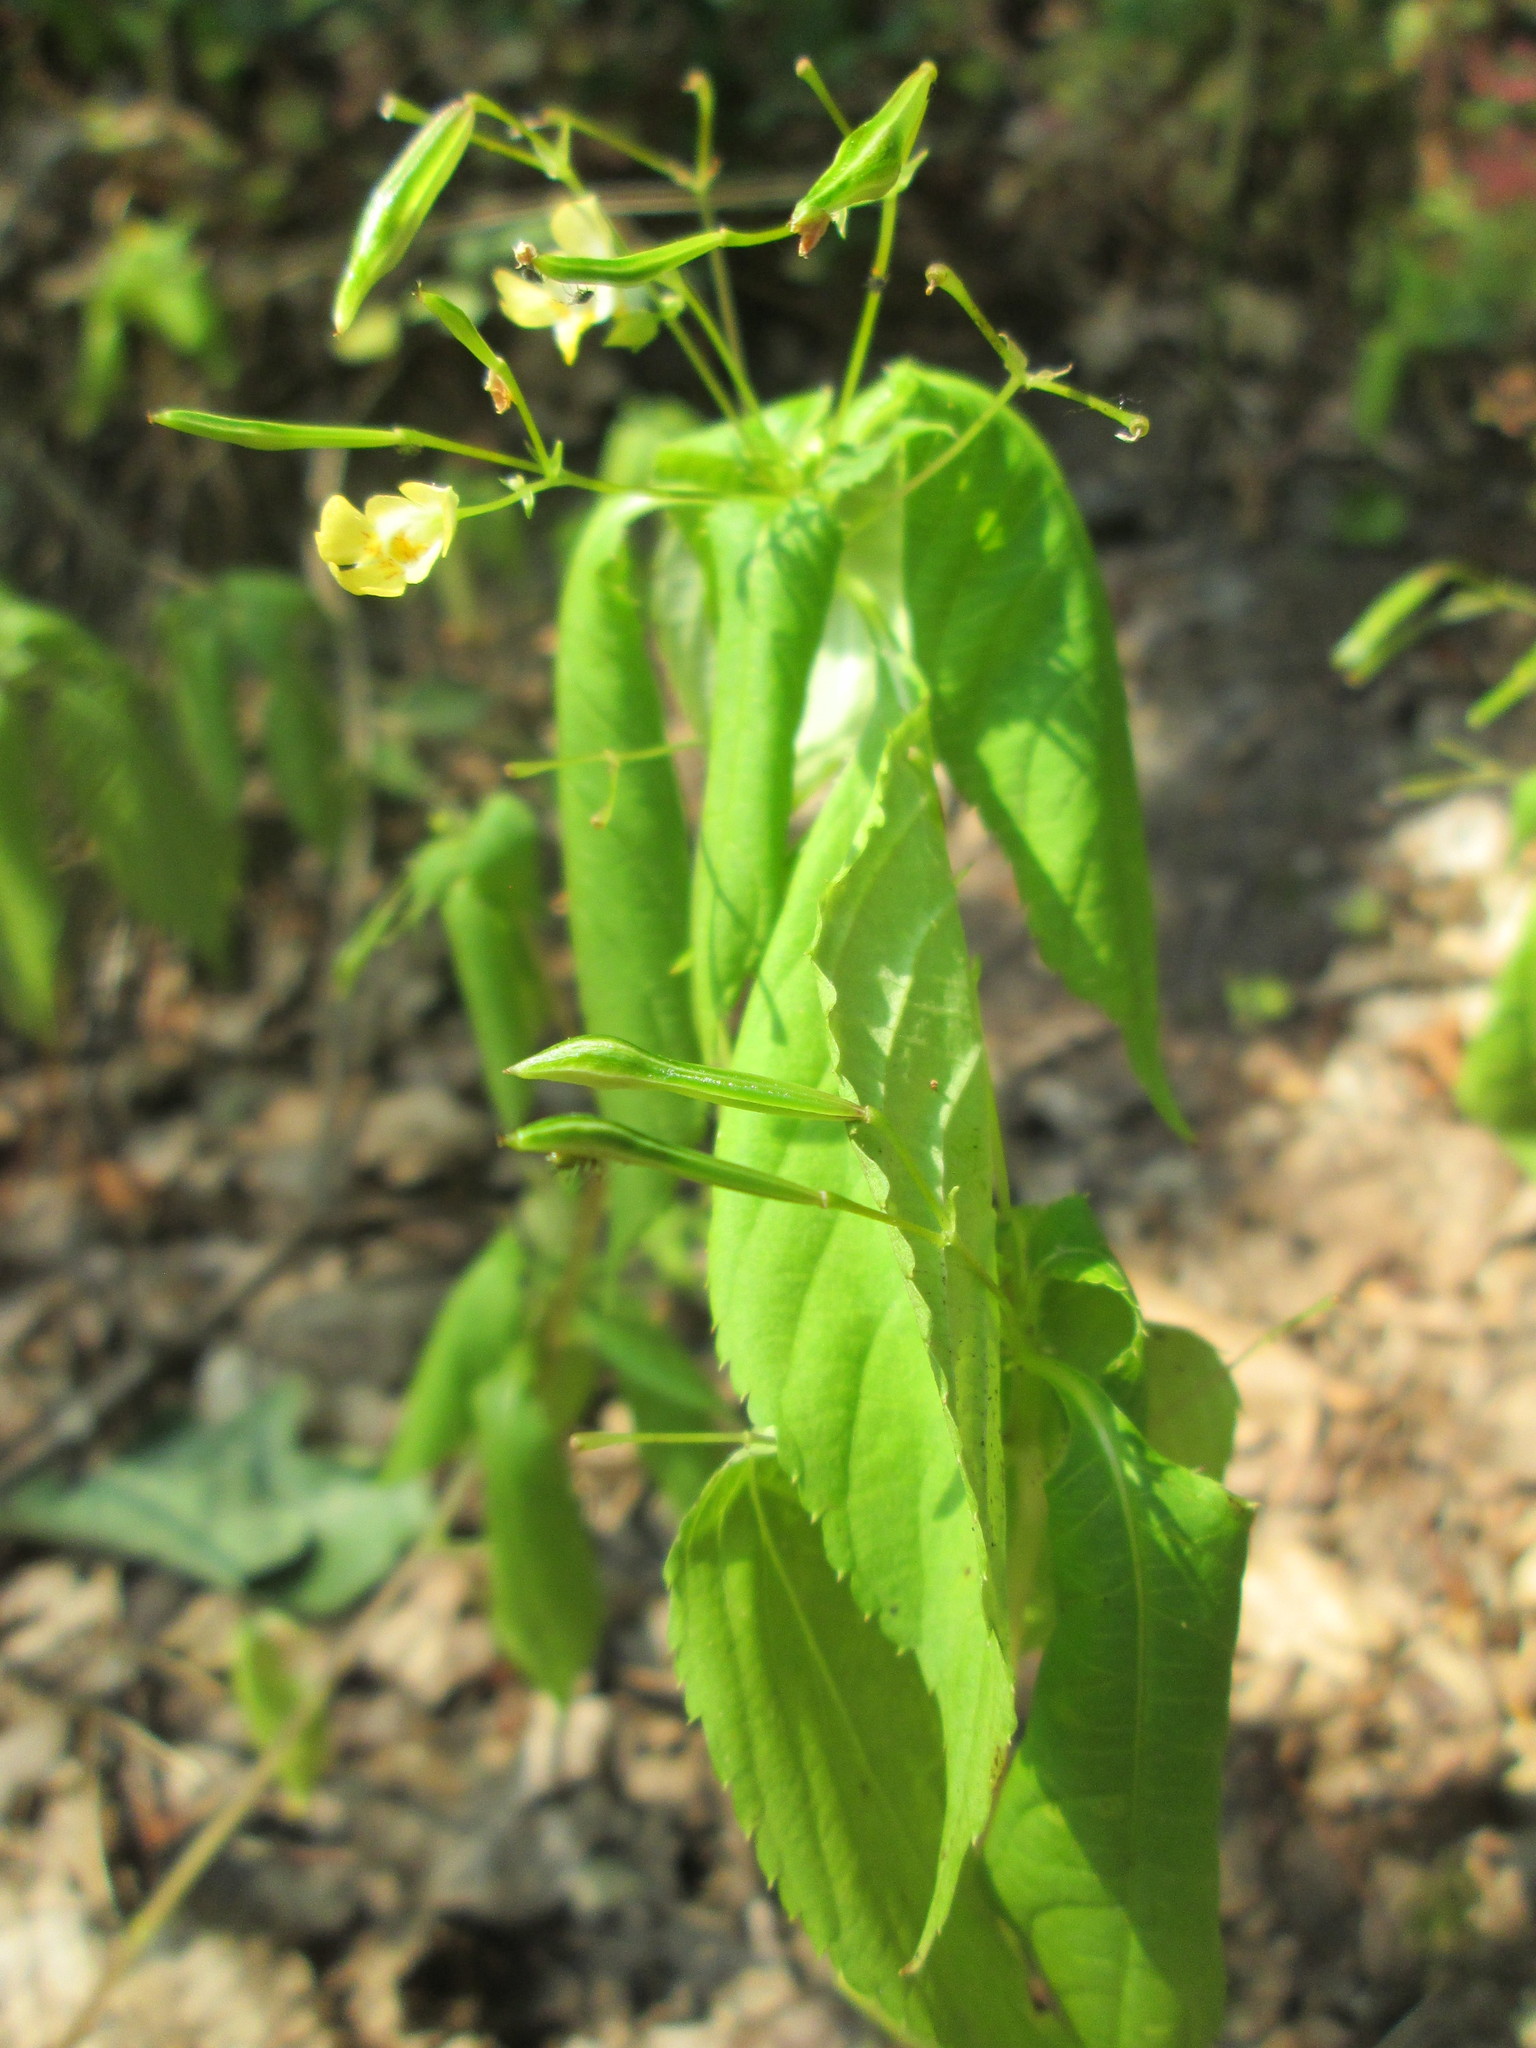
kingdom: Plantae
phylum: Tracheophyta
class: Magnoliopsida
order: Ericales
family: Balsaminaceae
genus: Impatiens
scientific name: Impatiens parviflora
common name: Small balsam
